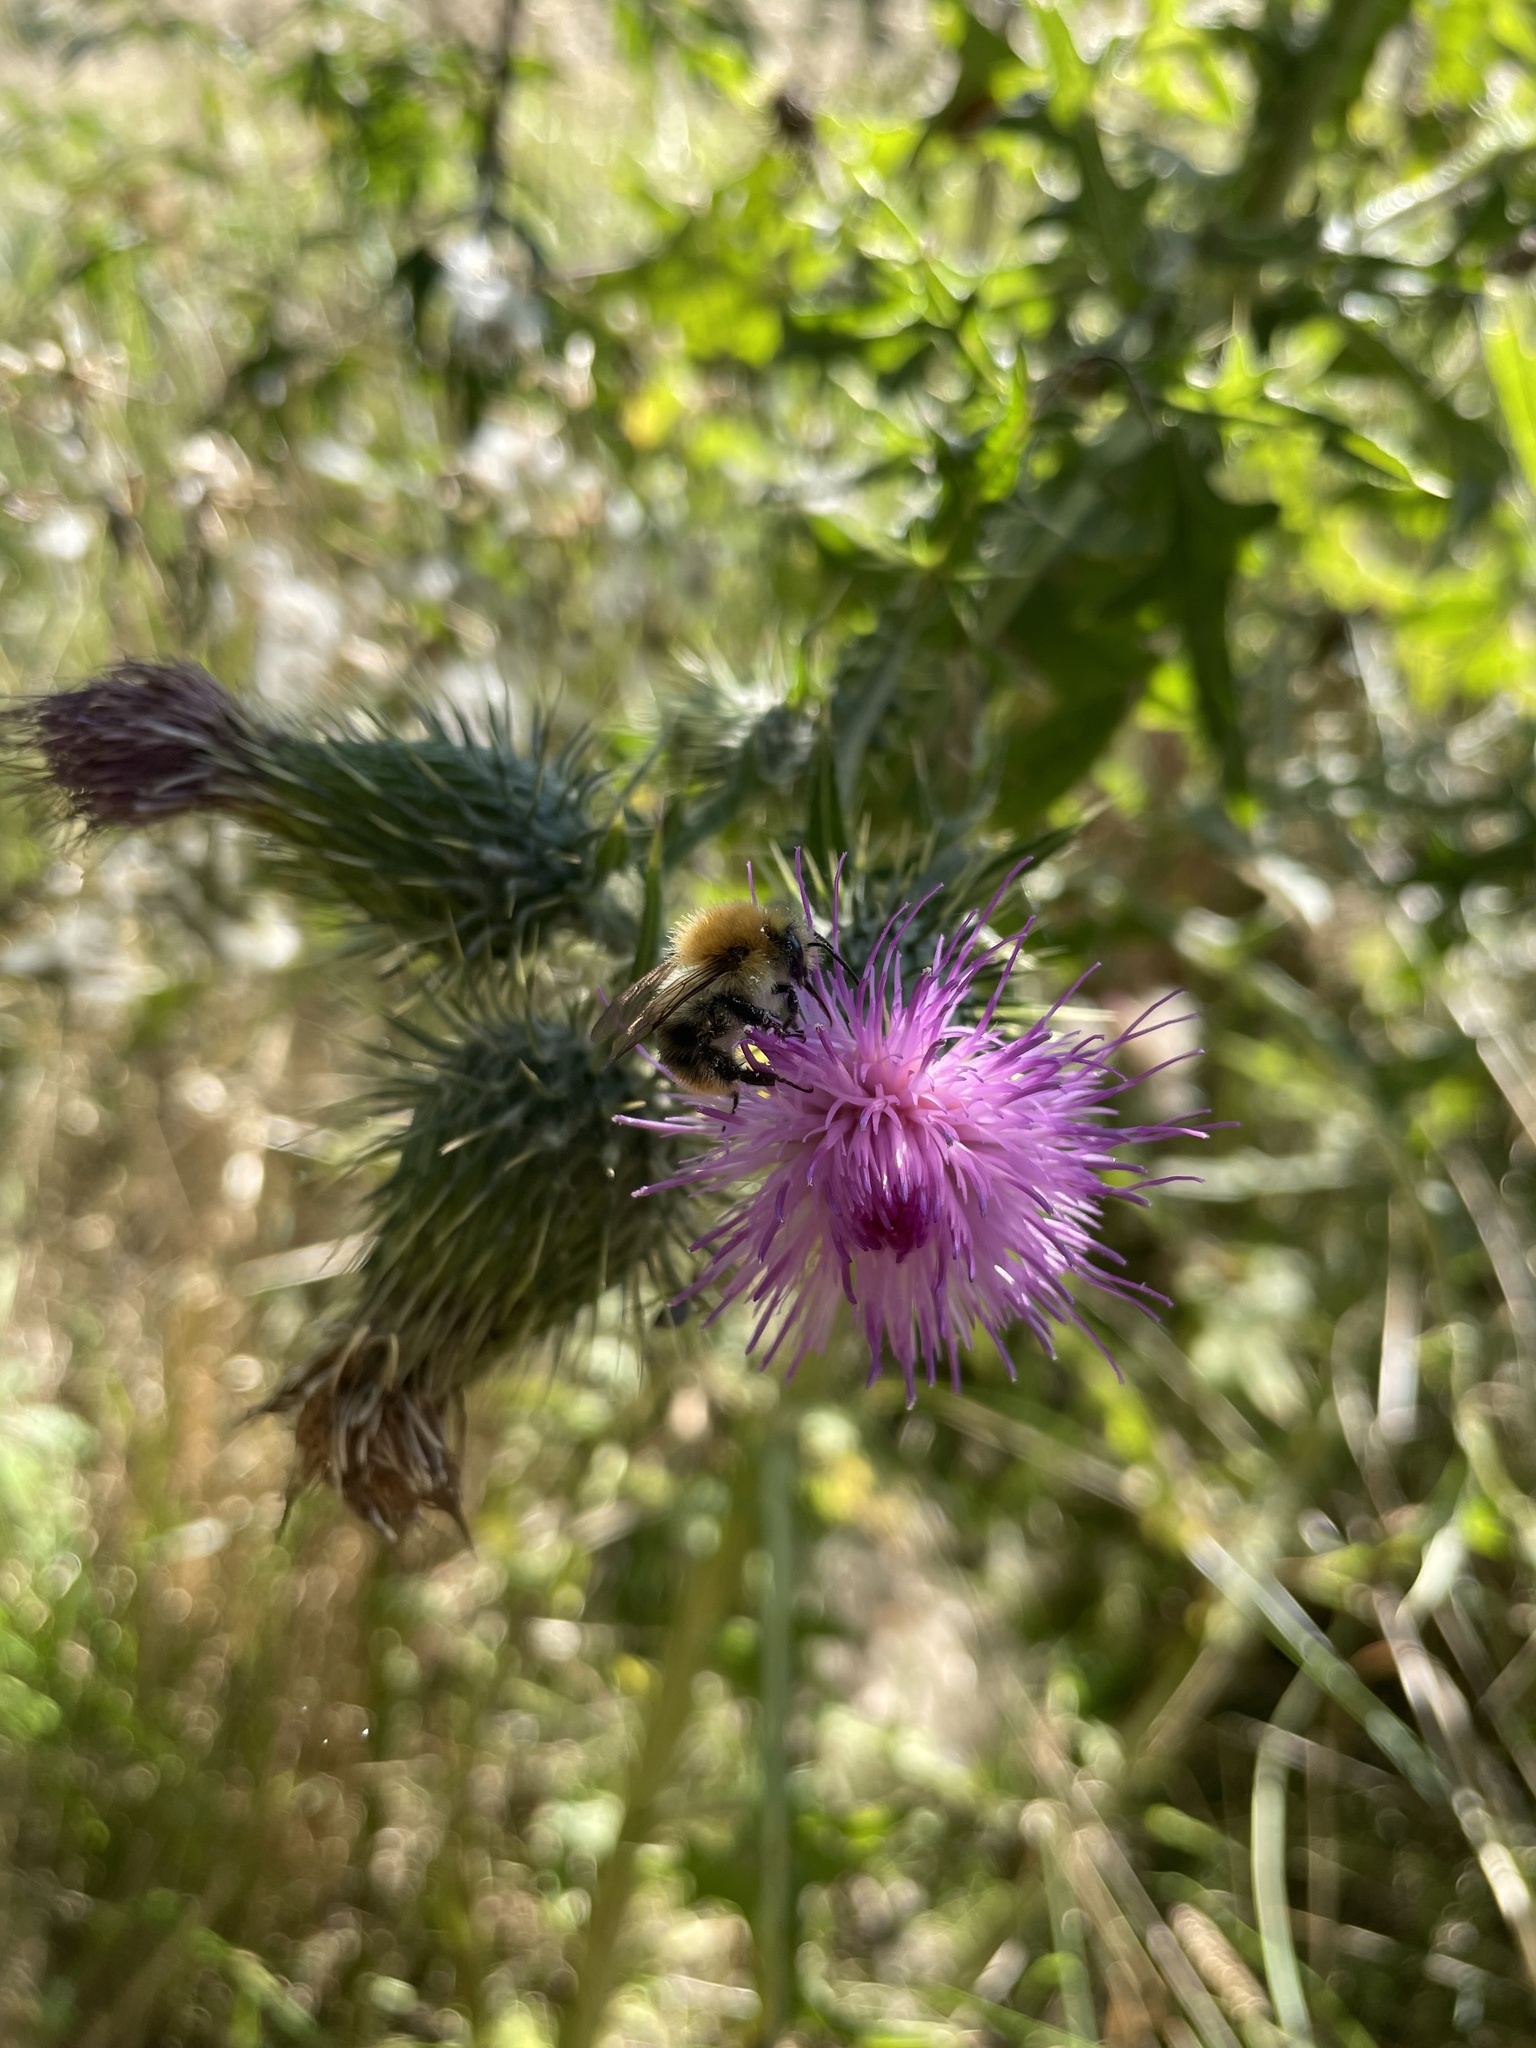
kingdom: Animalia
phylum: Arthropoda
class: Insecta
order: Hymenoptera
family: Apidae
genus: Bombus
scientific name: Bombus pascuorum
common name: Common carder bee
